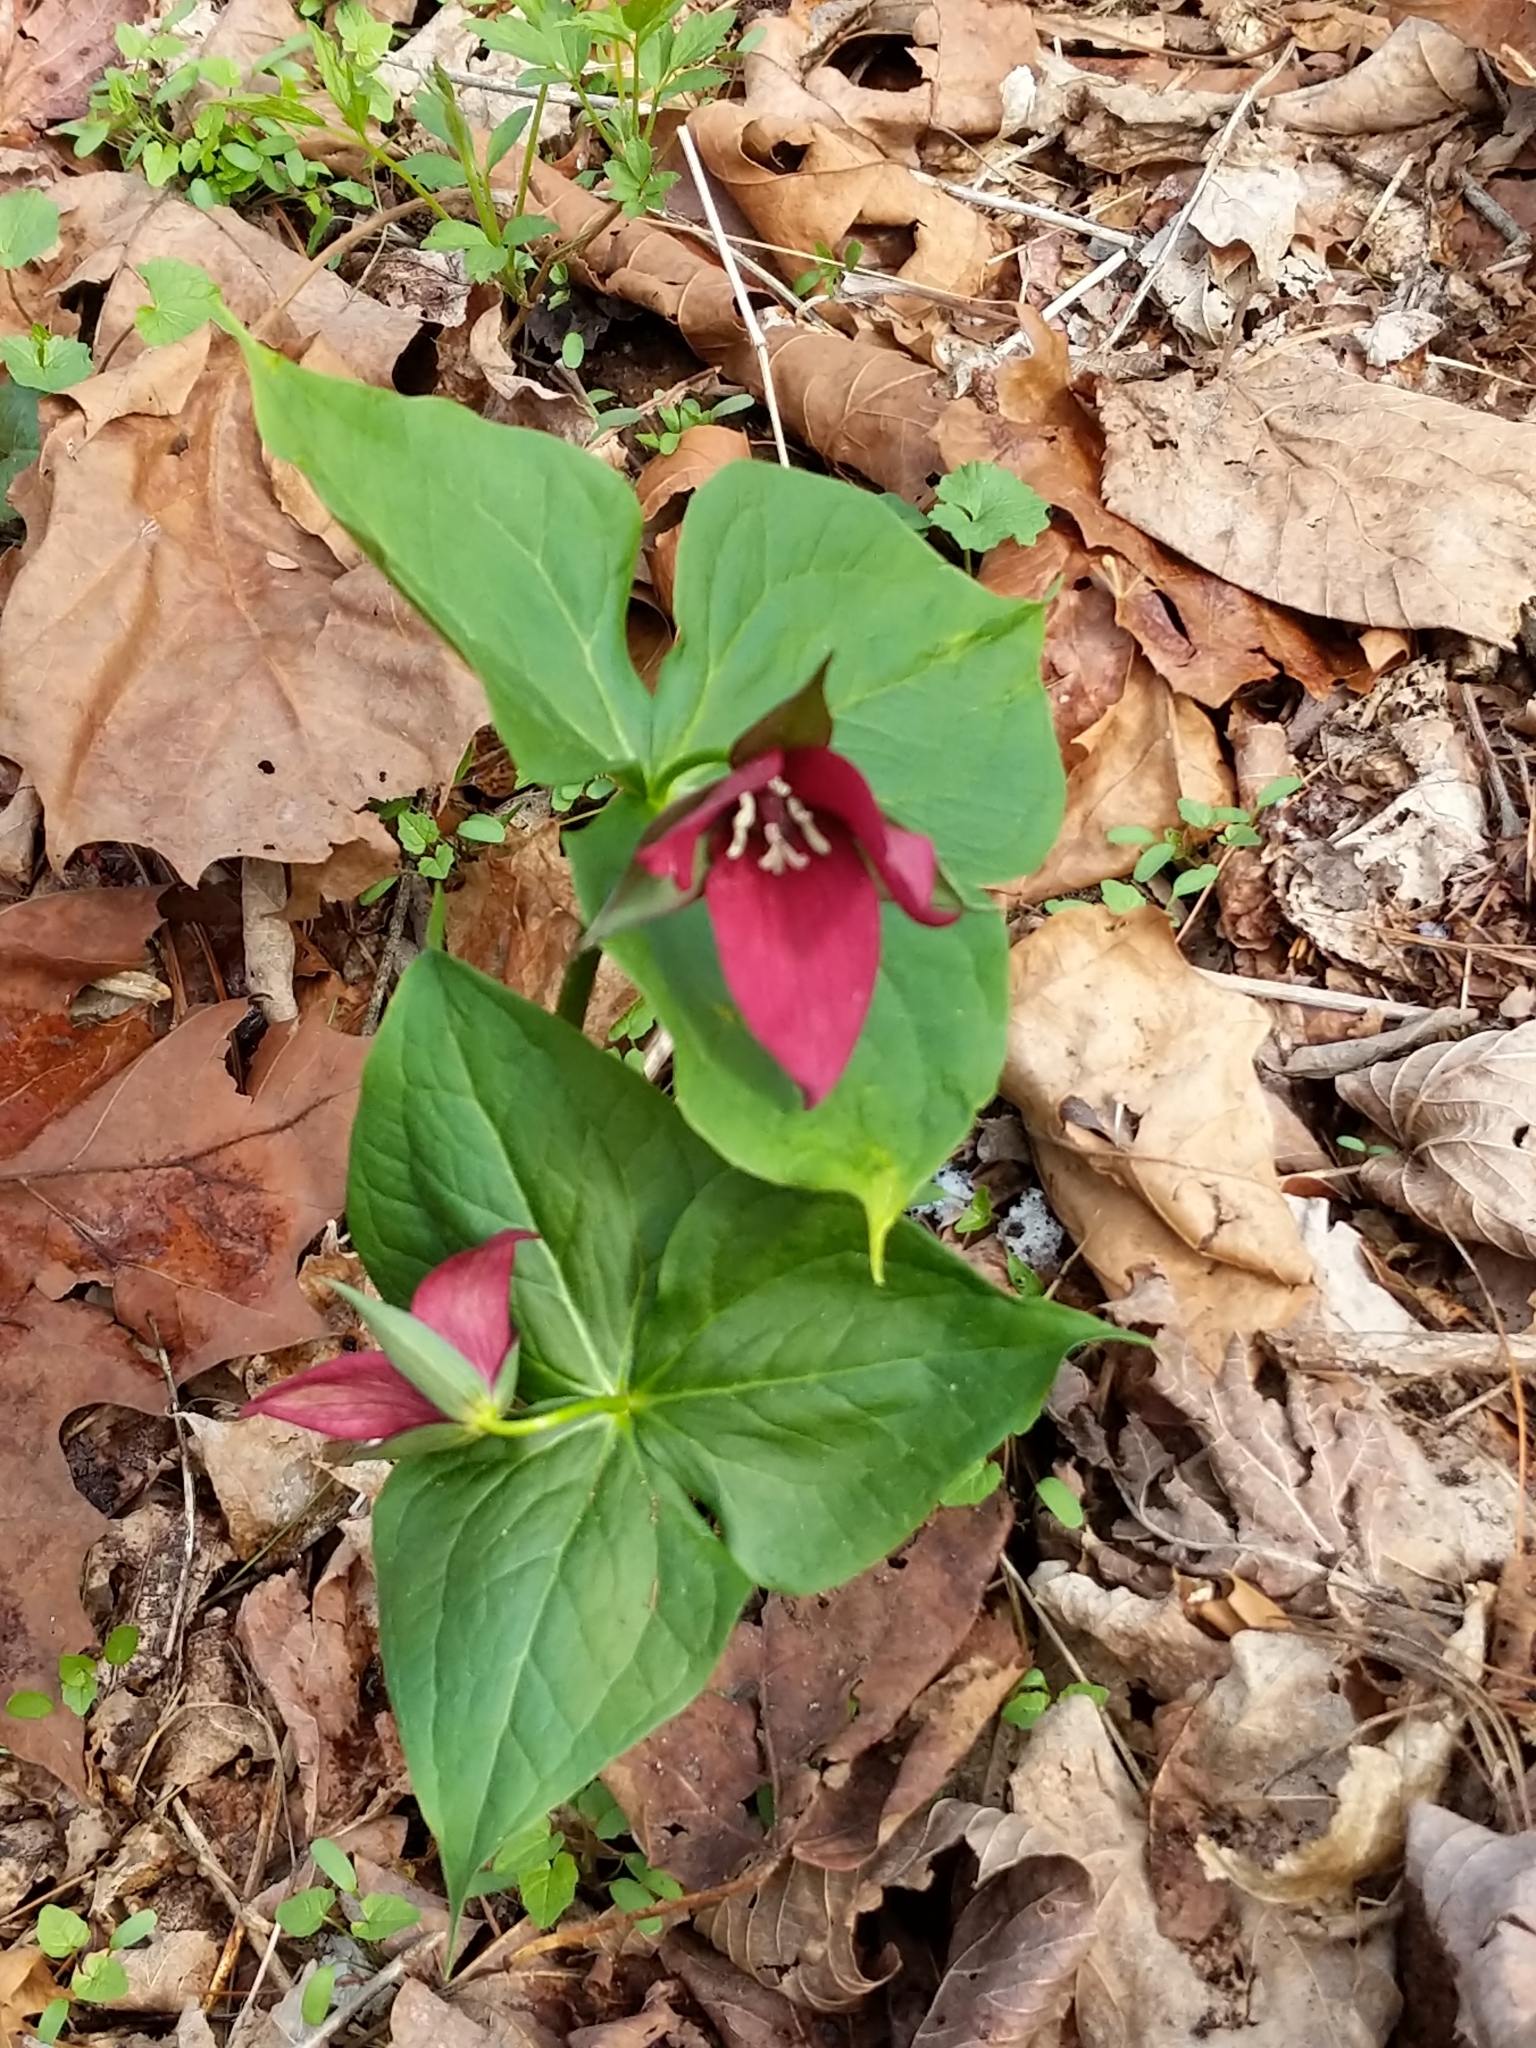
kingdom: Plantae
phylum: Tracheophyta
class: Liliopsida
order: Liliales
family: Melanthiaceae
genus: Trillium
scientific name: Trillium erectum
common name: Purple trillium
